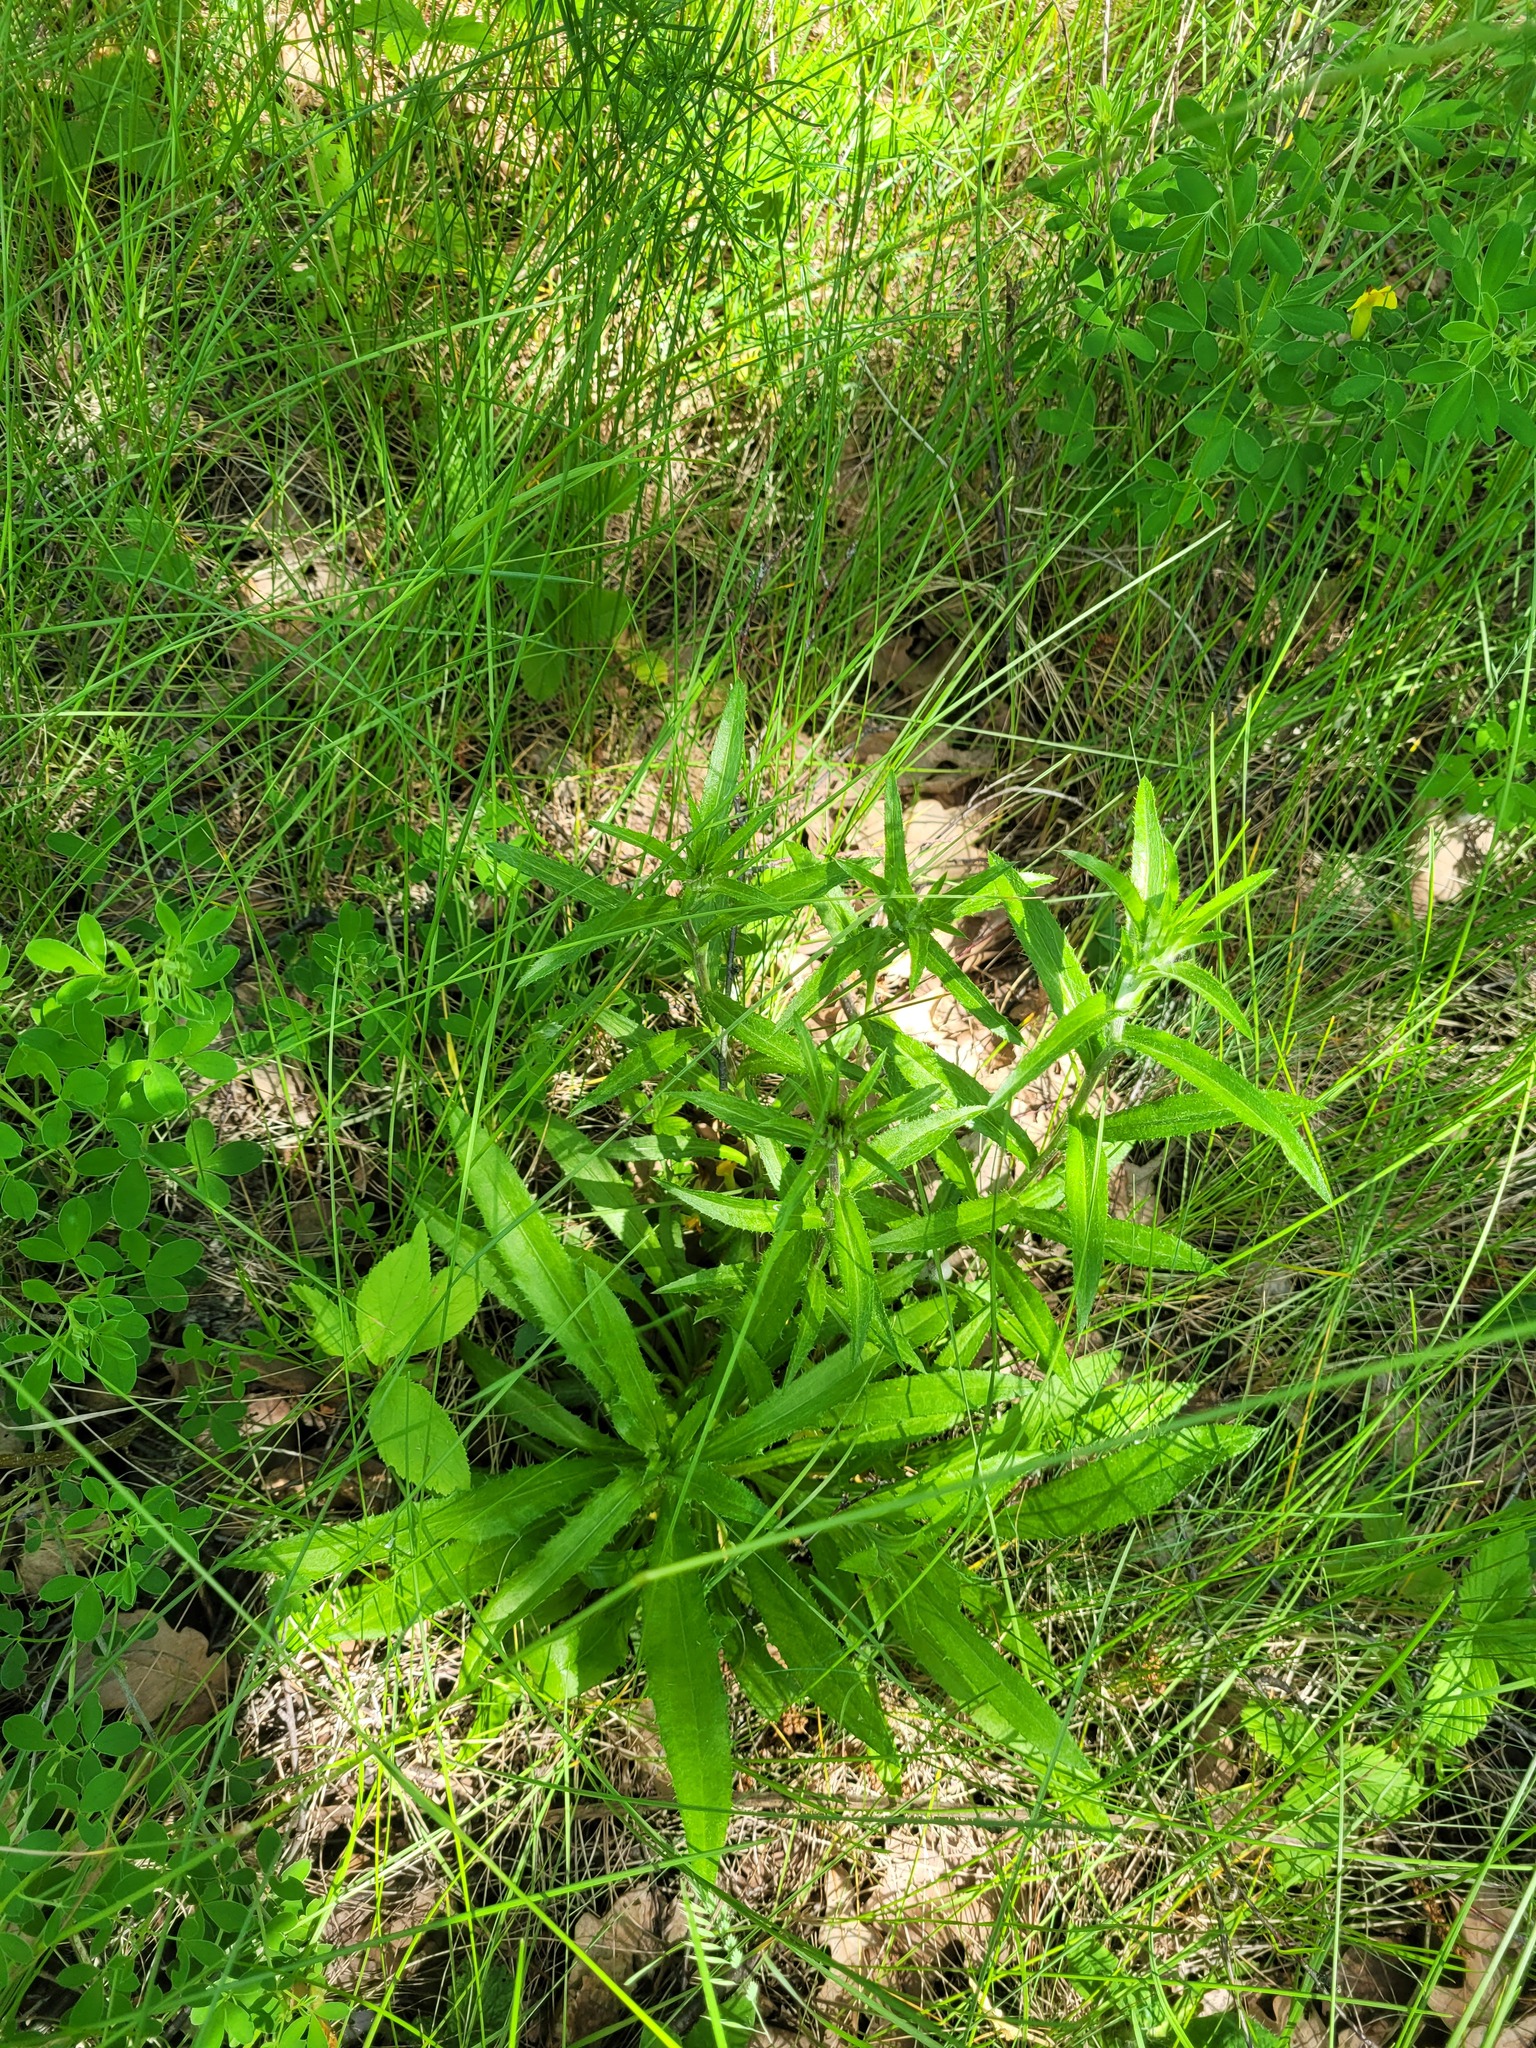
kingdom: Plantae
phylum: Tracheophyta
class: Magnoliopsida
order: Asterales
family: Asteraceae
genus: Carlina
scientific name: Carlina biebersteinii
